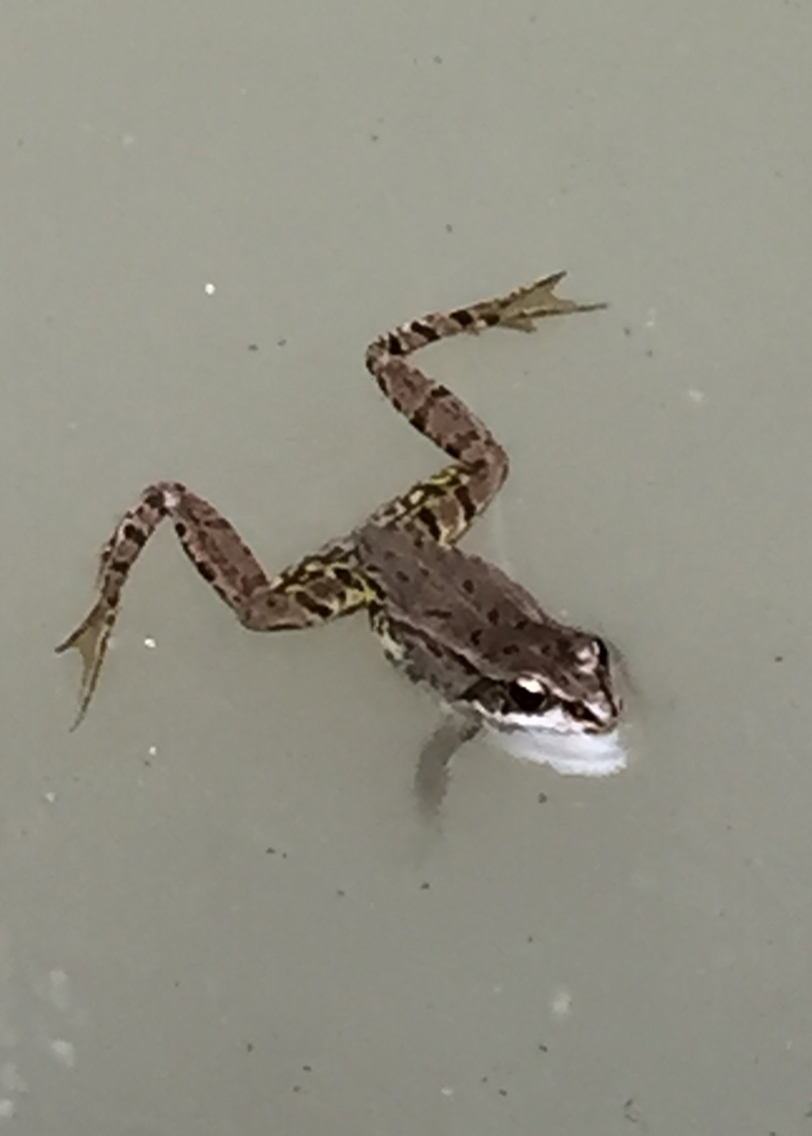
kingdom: Animalia
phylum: Chordata
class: Amphibia
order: Anura
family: Ranidae
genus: Pelophylax
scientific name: Pelophylax
